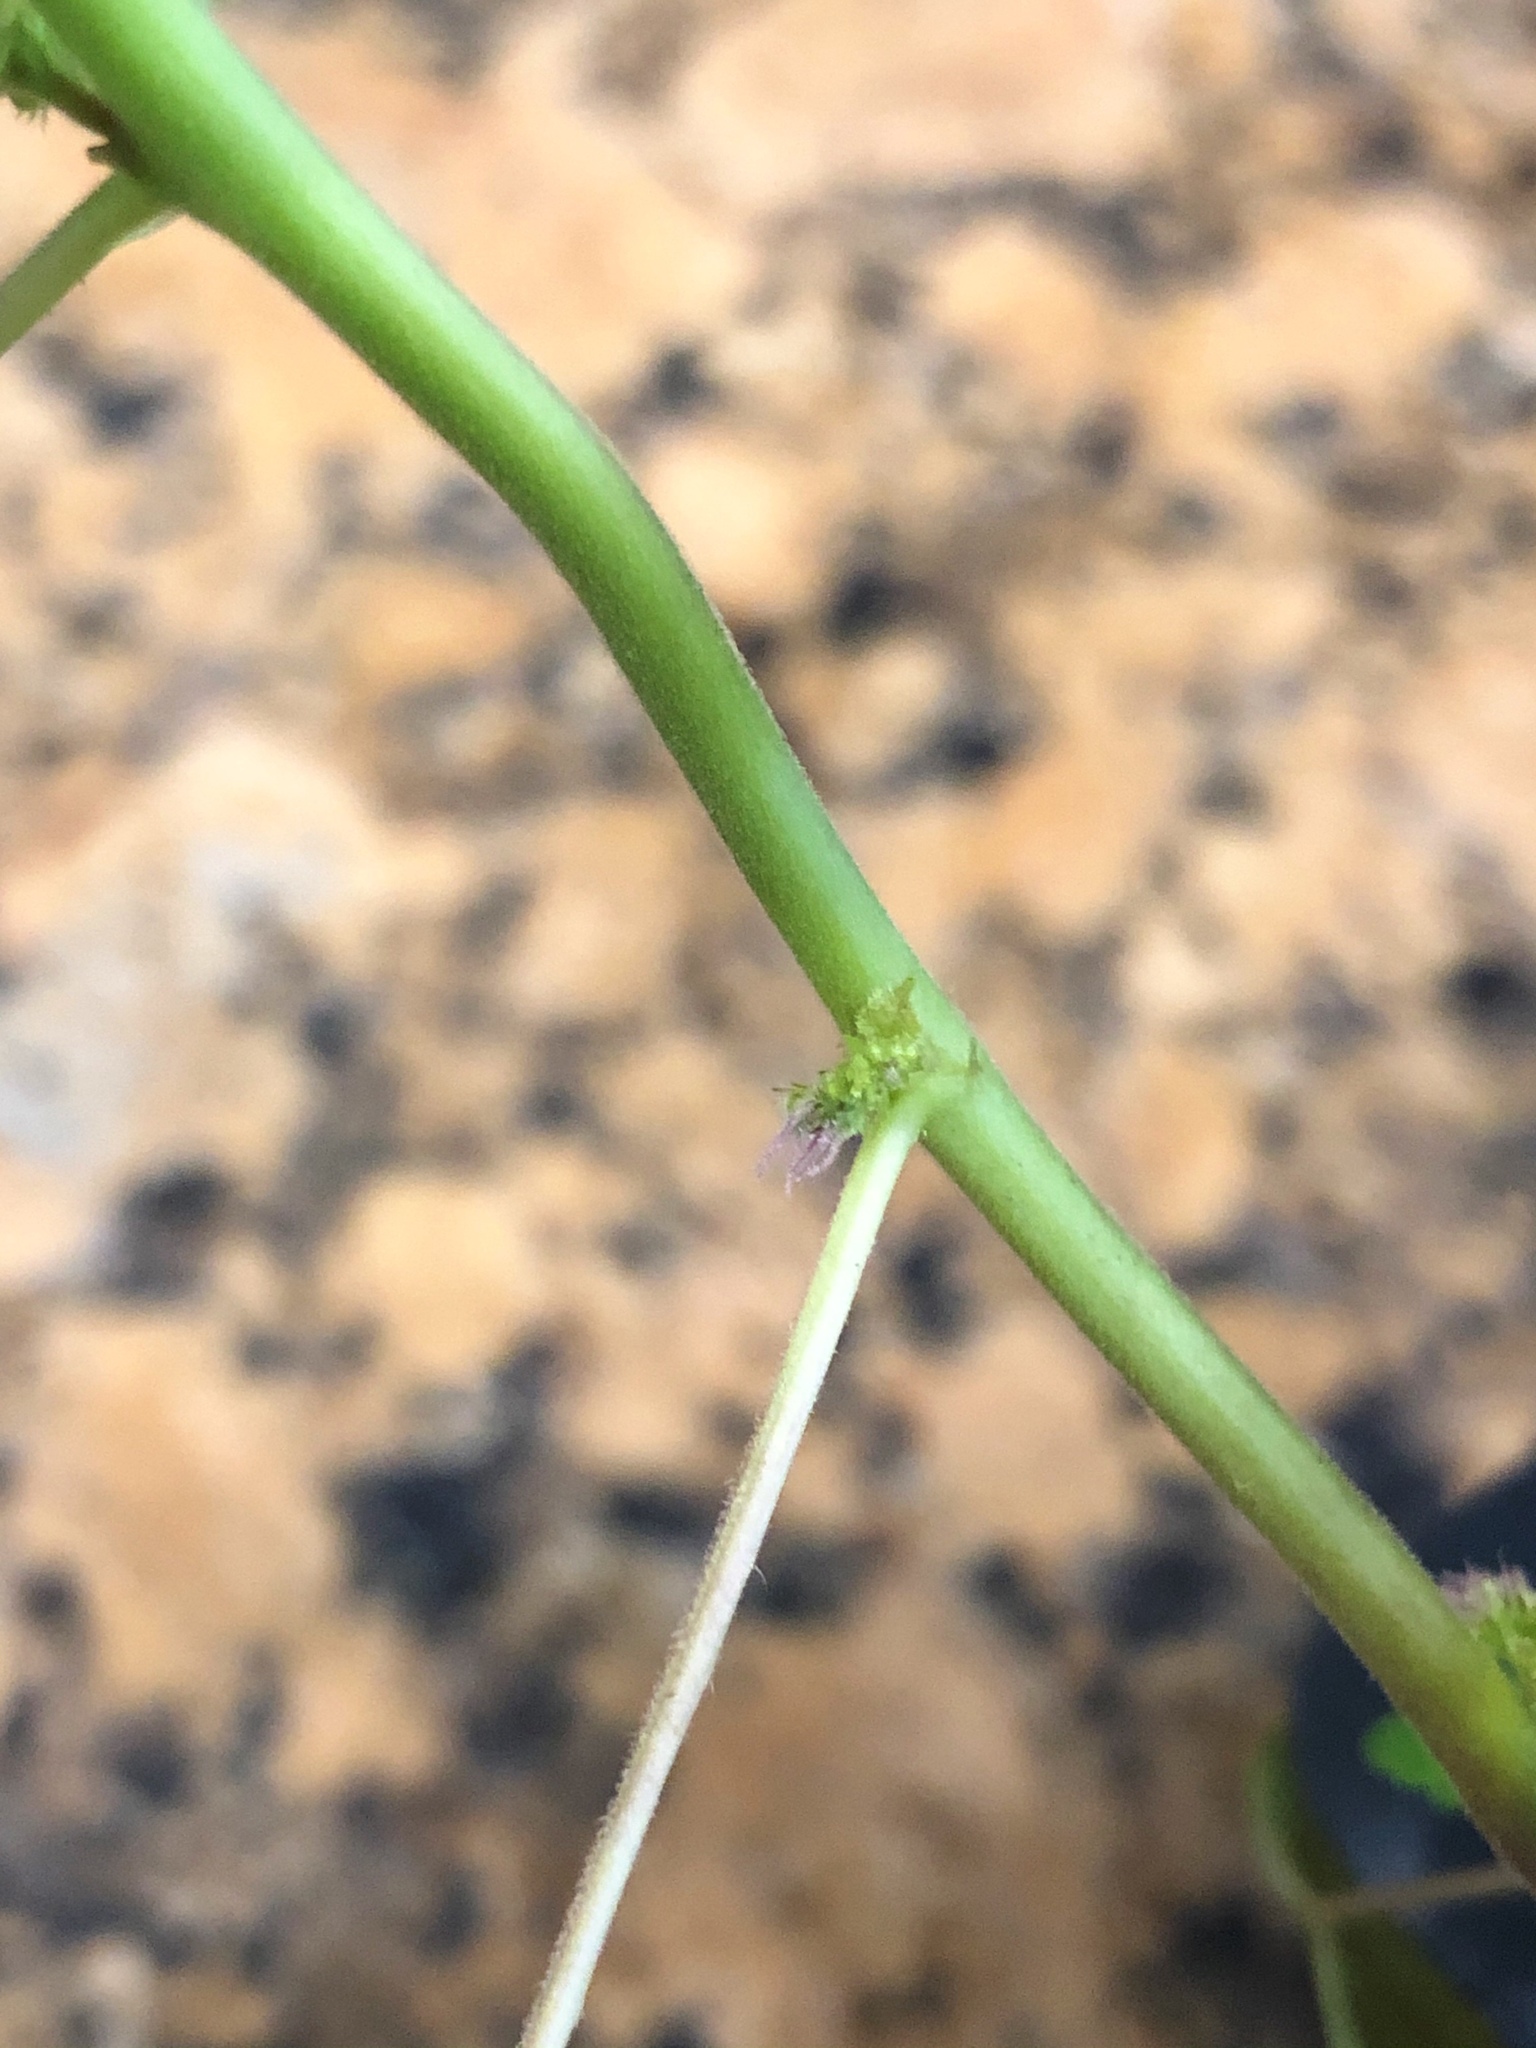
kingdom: Plantae
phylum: Tracheophyta
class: Magnoliopsida
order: Rosales
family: Moraceae
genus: Fatoua
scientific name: Fatoua villosa
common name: Hairy crabweed
